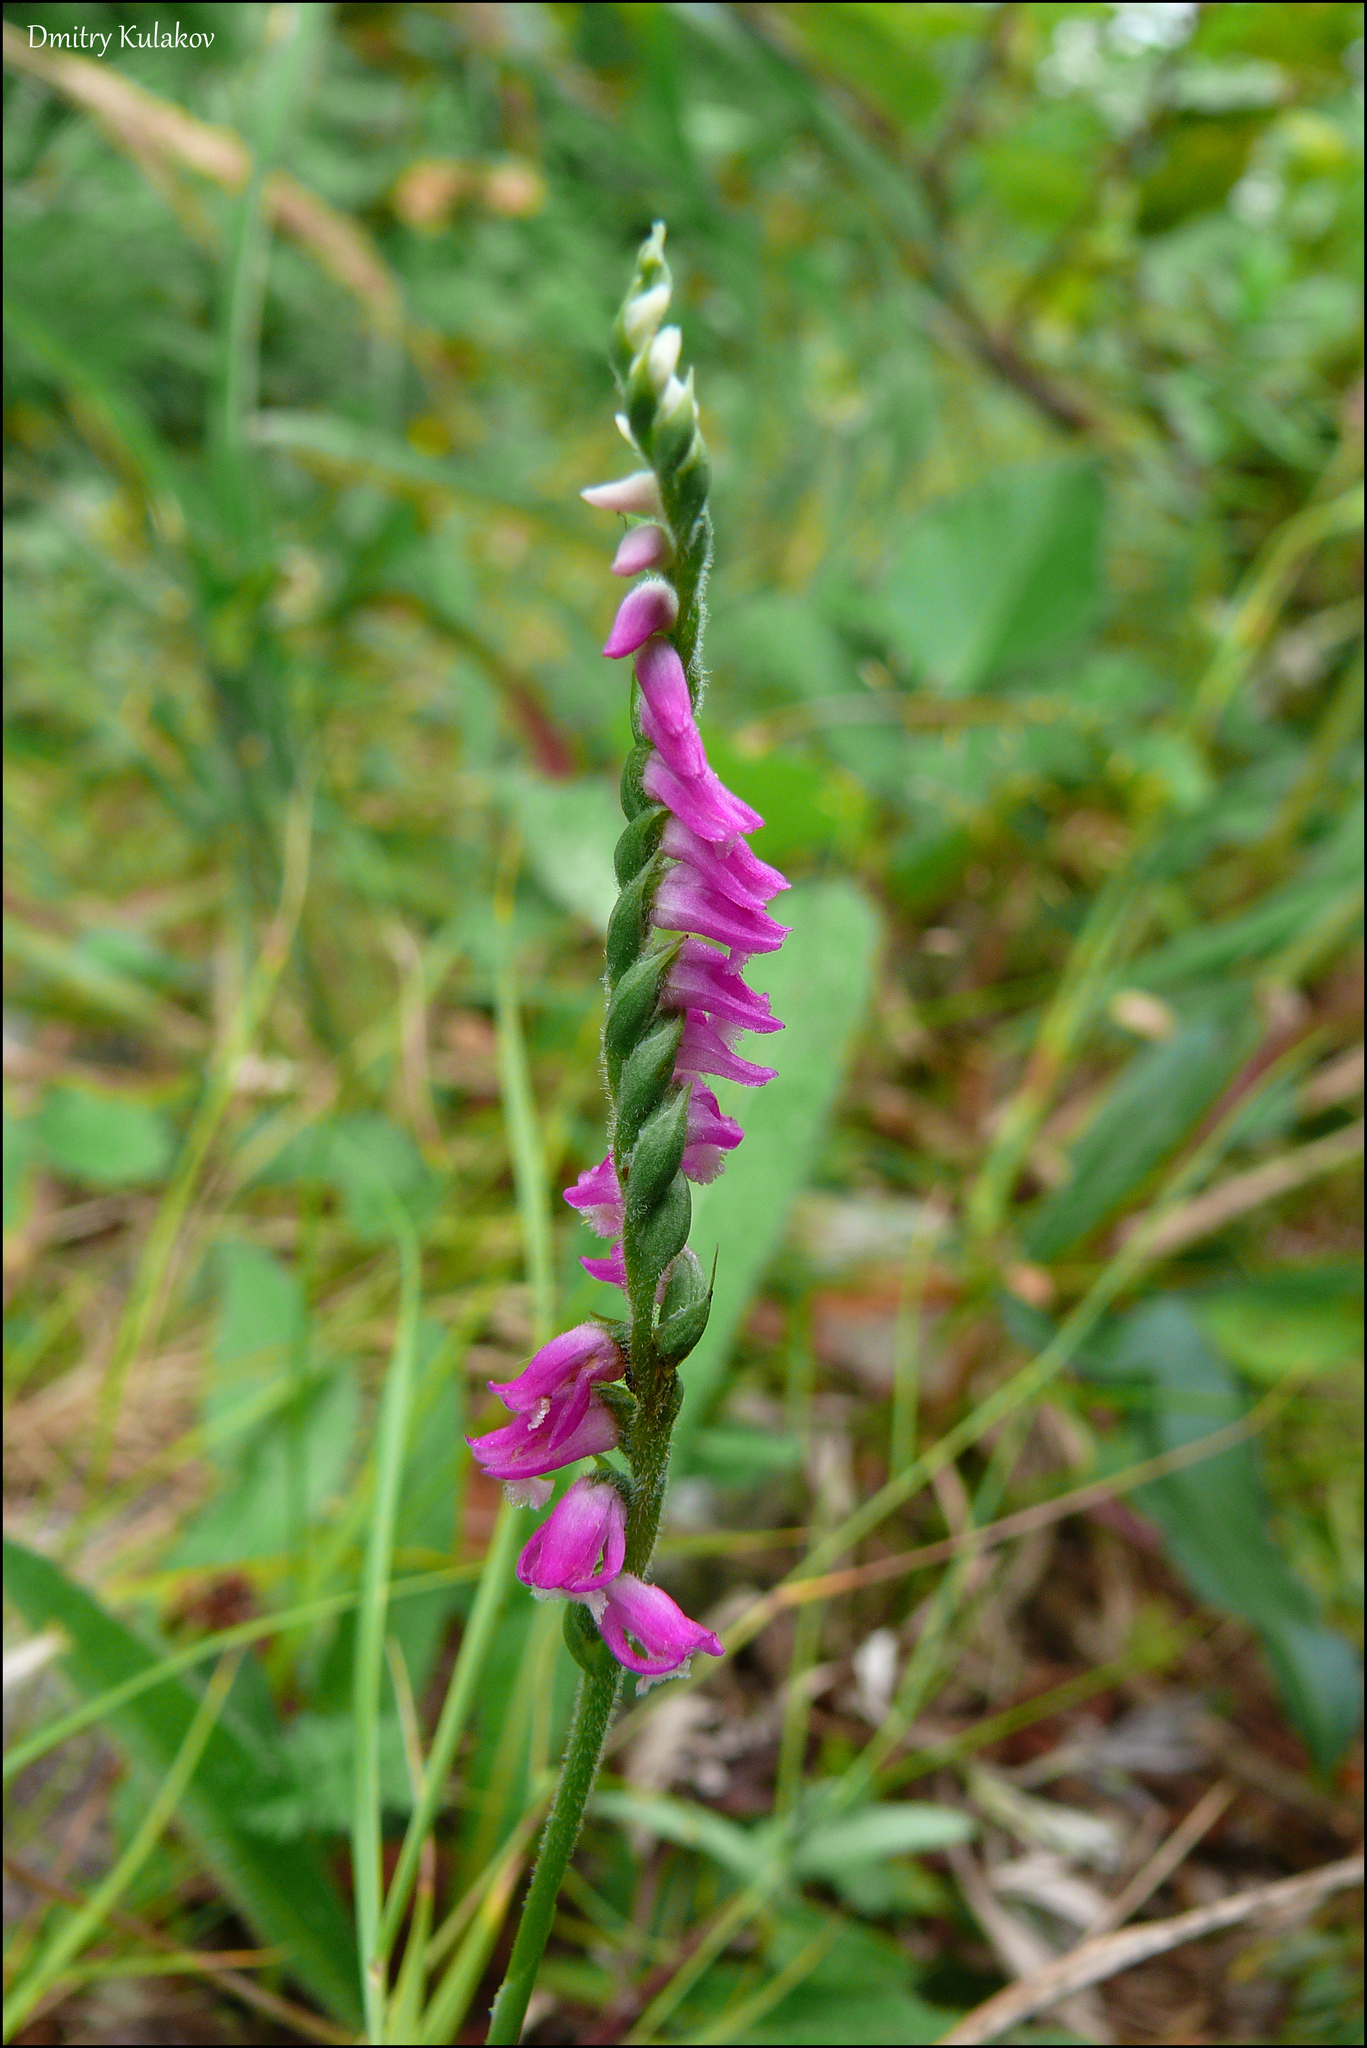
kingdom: Plantae
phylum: Tracheophyta
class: Liliopsida
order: Asparagales
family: Orchidaceae
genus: Spiranthes
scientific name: Spiranthes australis
